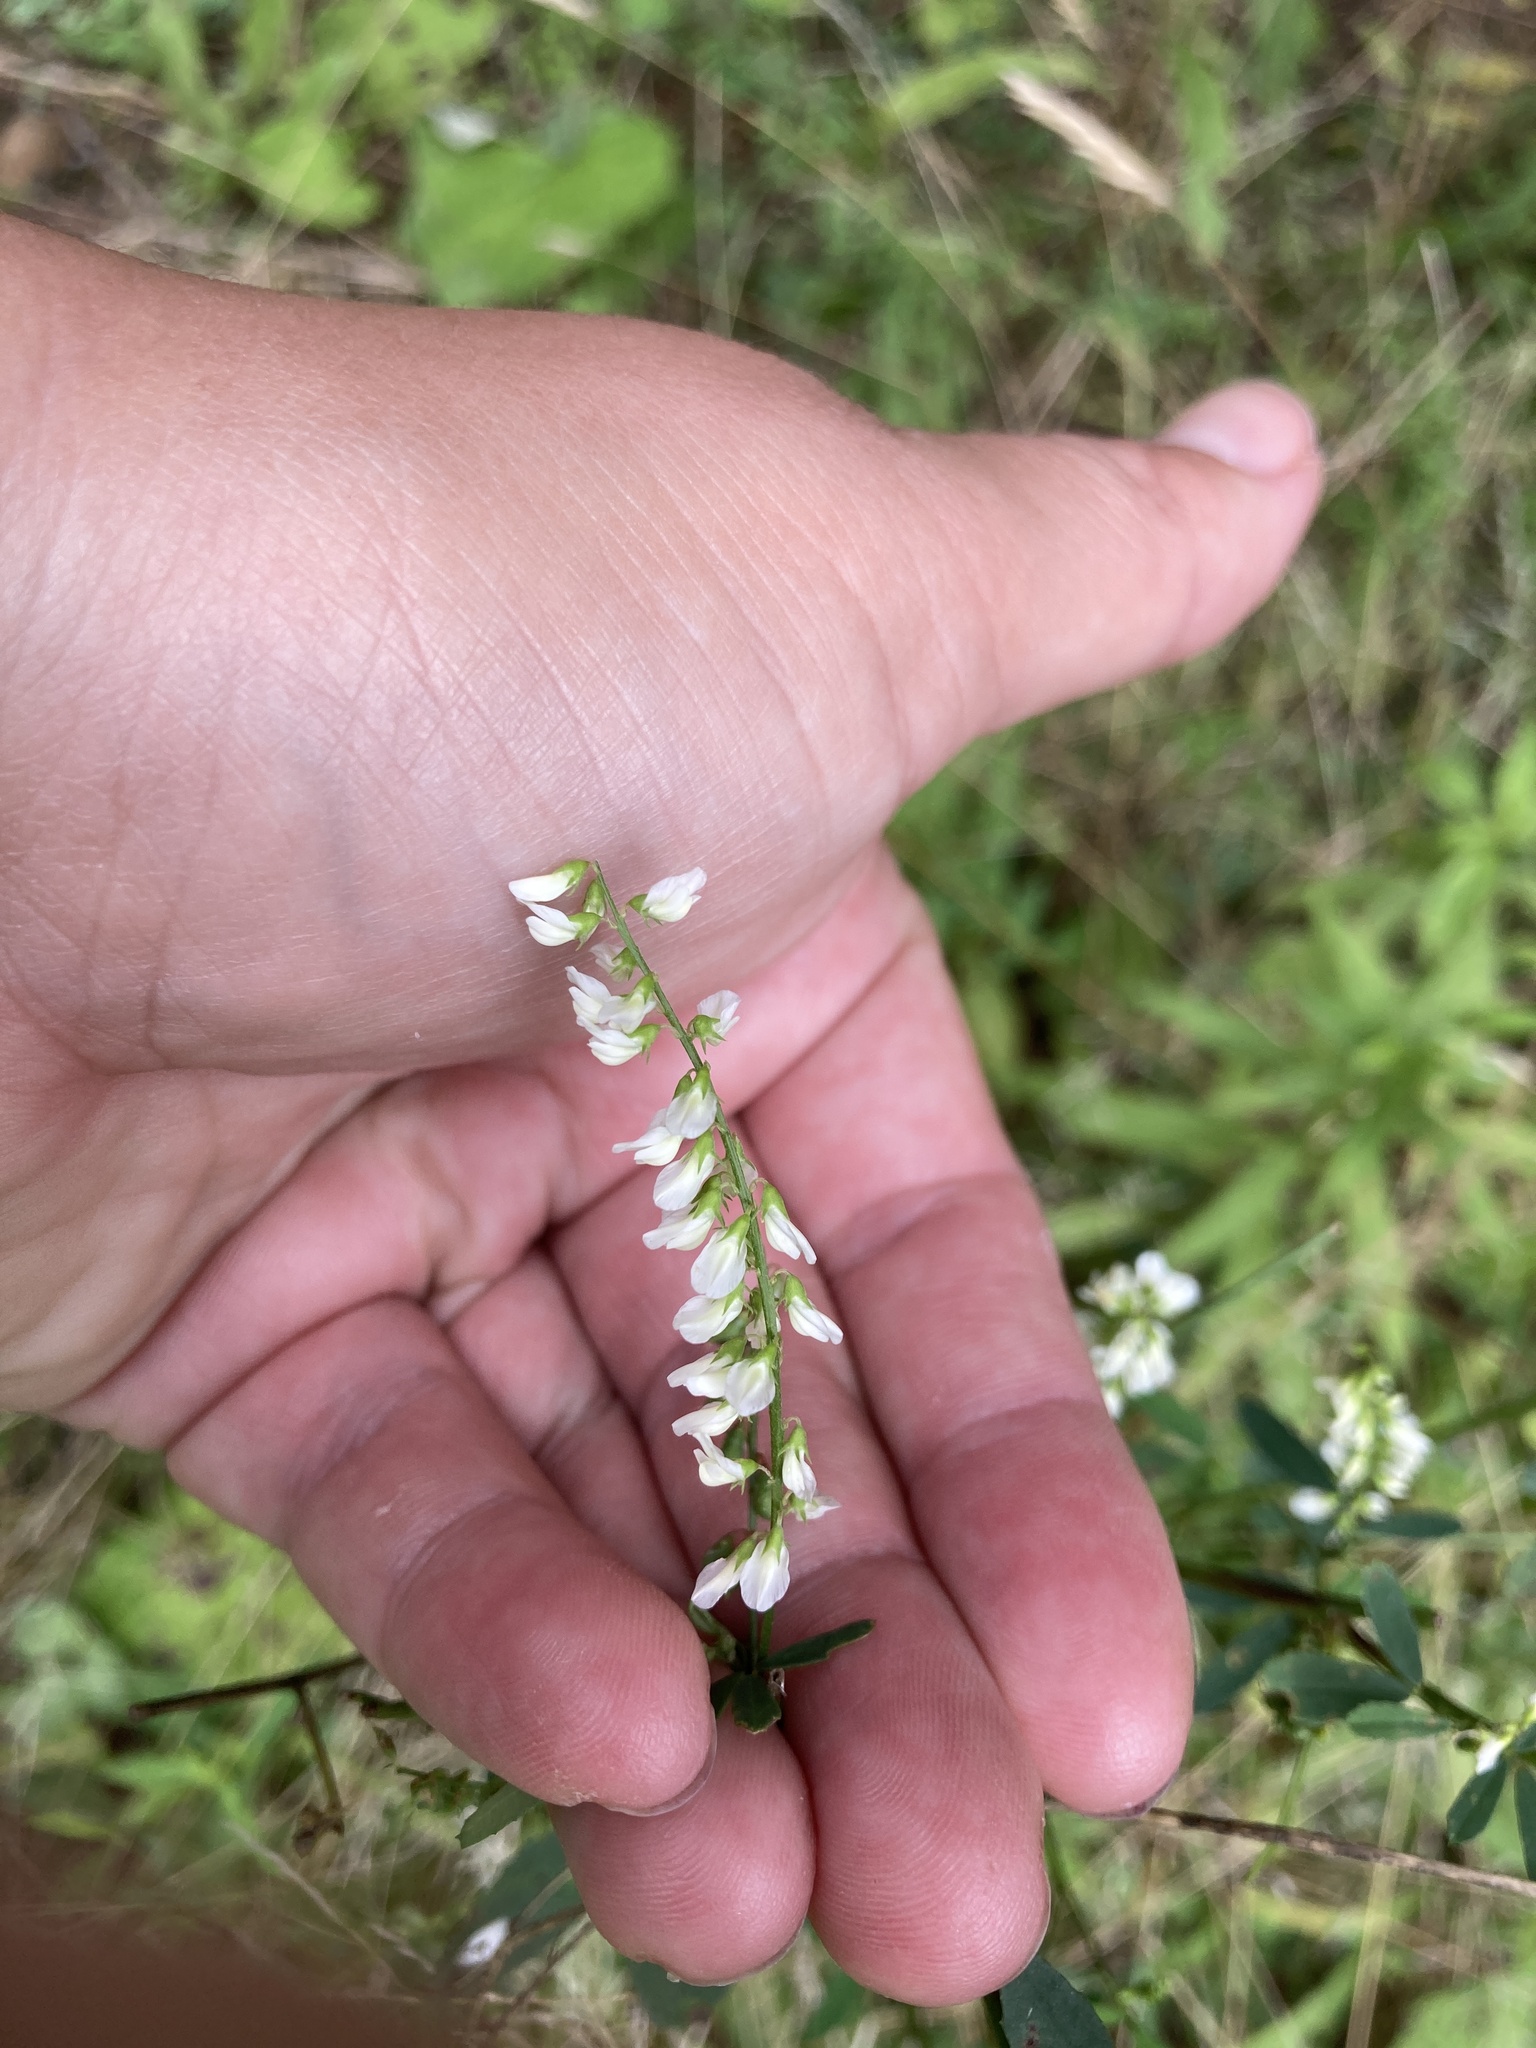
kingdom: Plantae
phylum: Tracheophyta
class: Magnoliopsida
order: Fabales
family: Fabaceae
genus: Melilotus
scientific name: Melilotus albus
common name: White melilot
